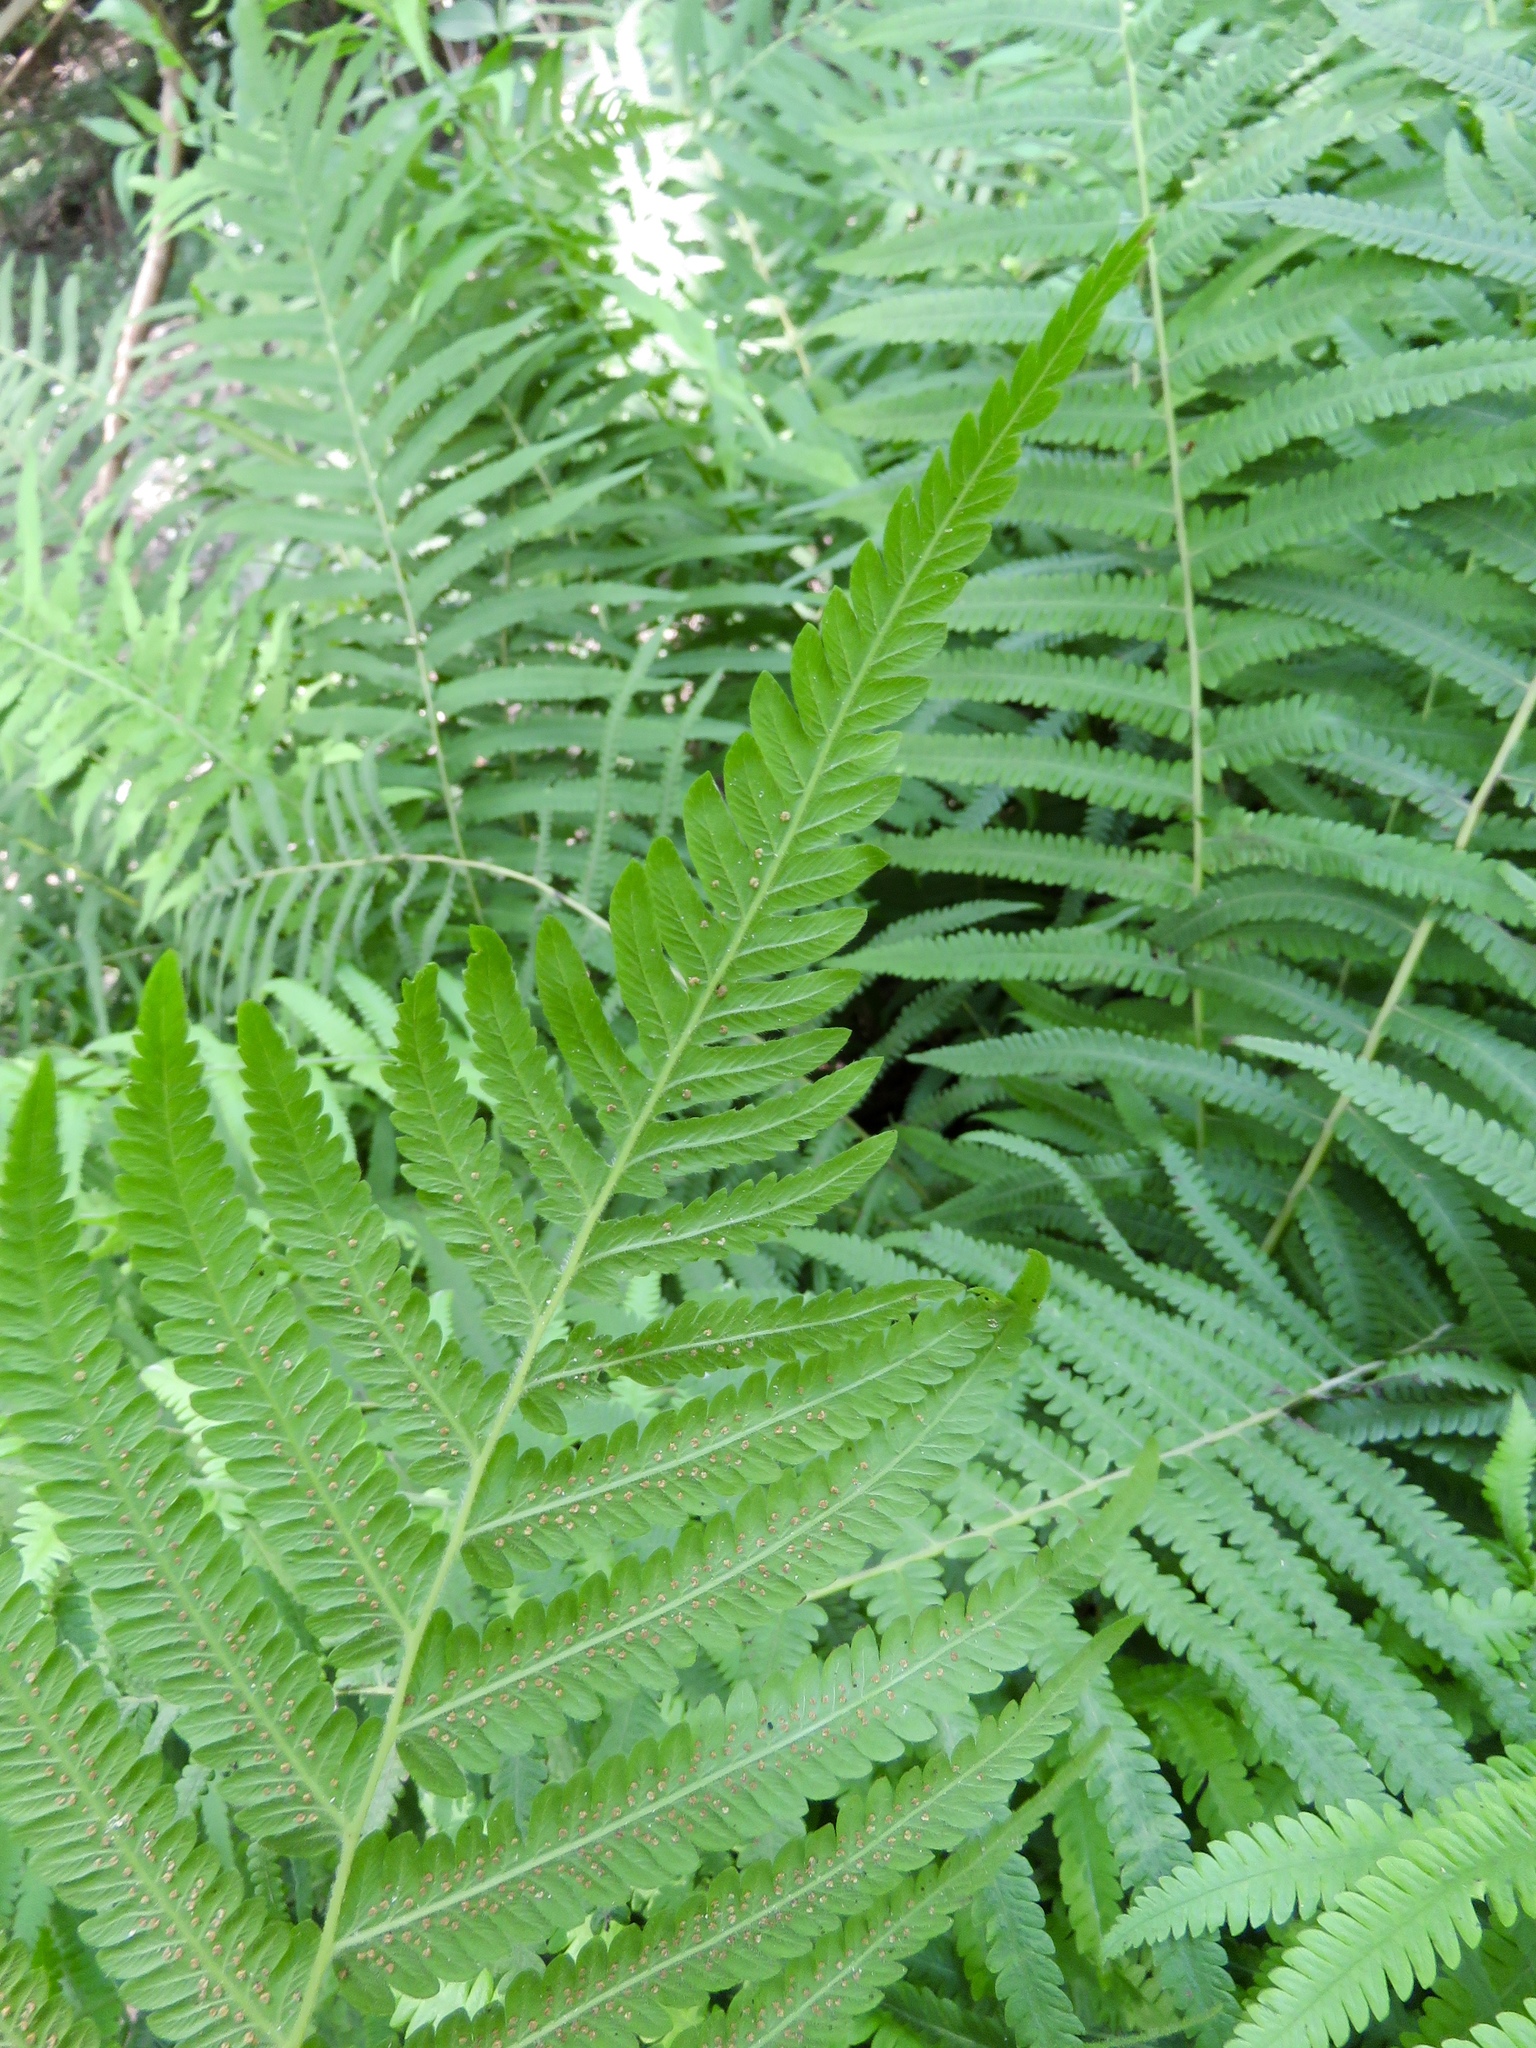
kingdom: Plantae
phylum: Tracheophyta
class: Polypodiopsida
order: Polypodiales
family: Thelypteridaceae
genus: Pelazoneuron
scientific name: Pelazoneuron kunthii
